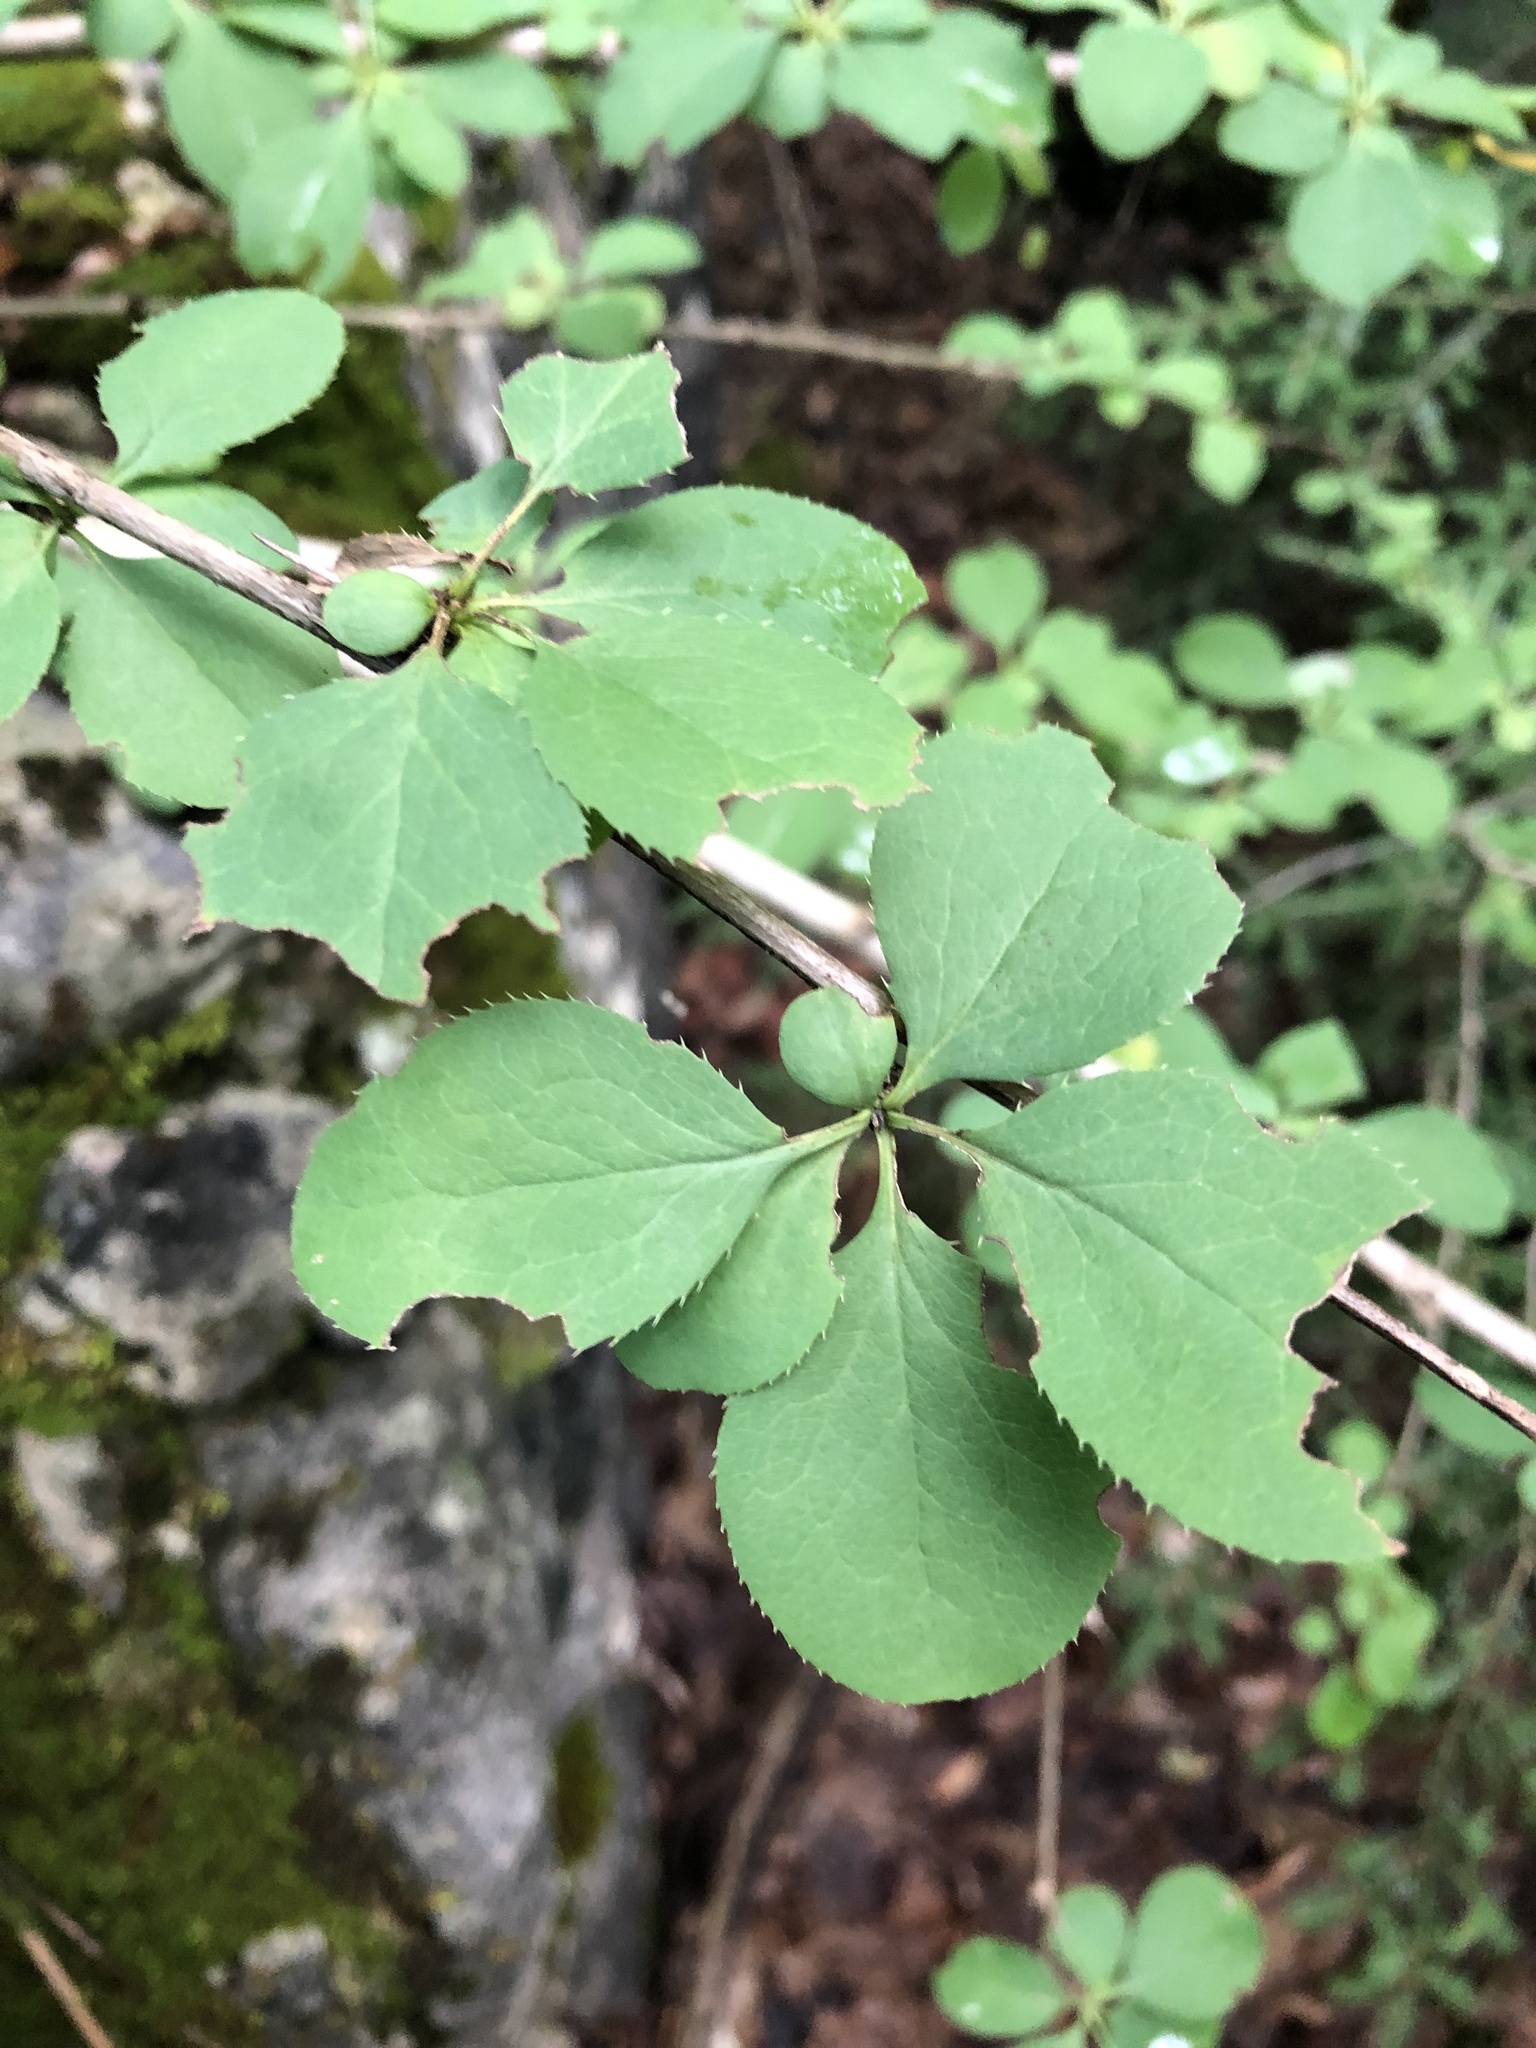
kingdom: Plantae
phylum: Tracheophyta
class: Magnoliopsida
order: Ranunculales
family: Berberidaceae
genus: Berberis
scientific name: Berberis vulgaris
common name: Barberry
